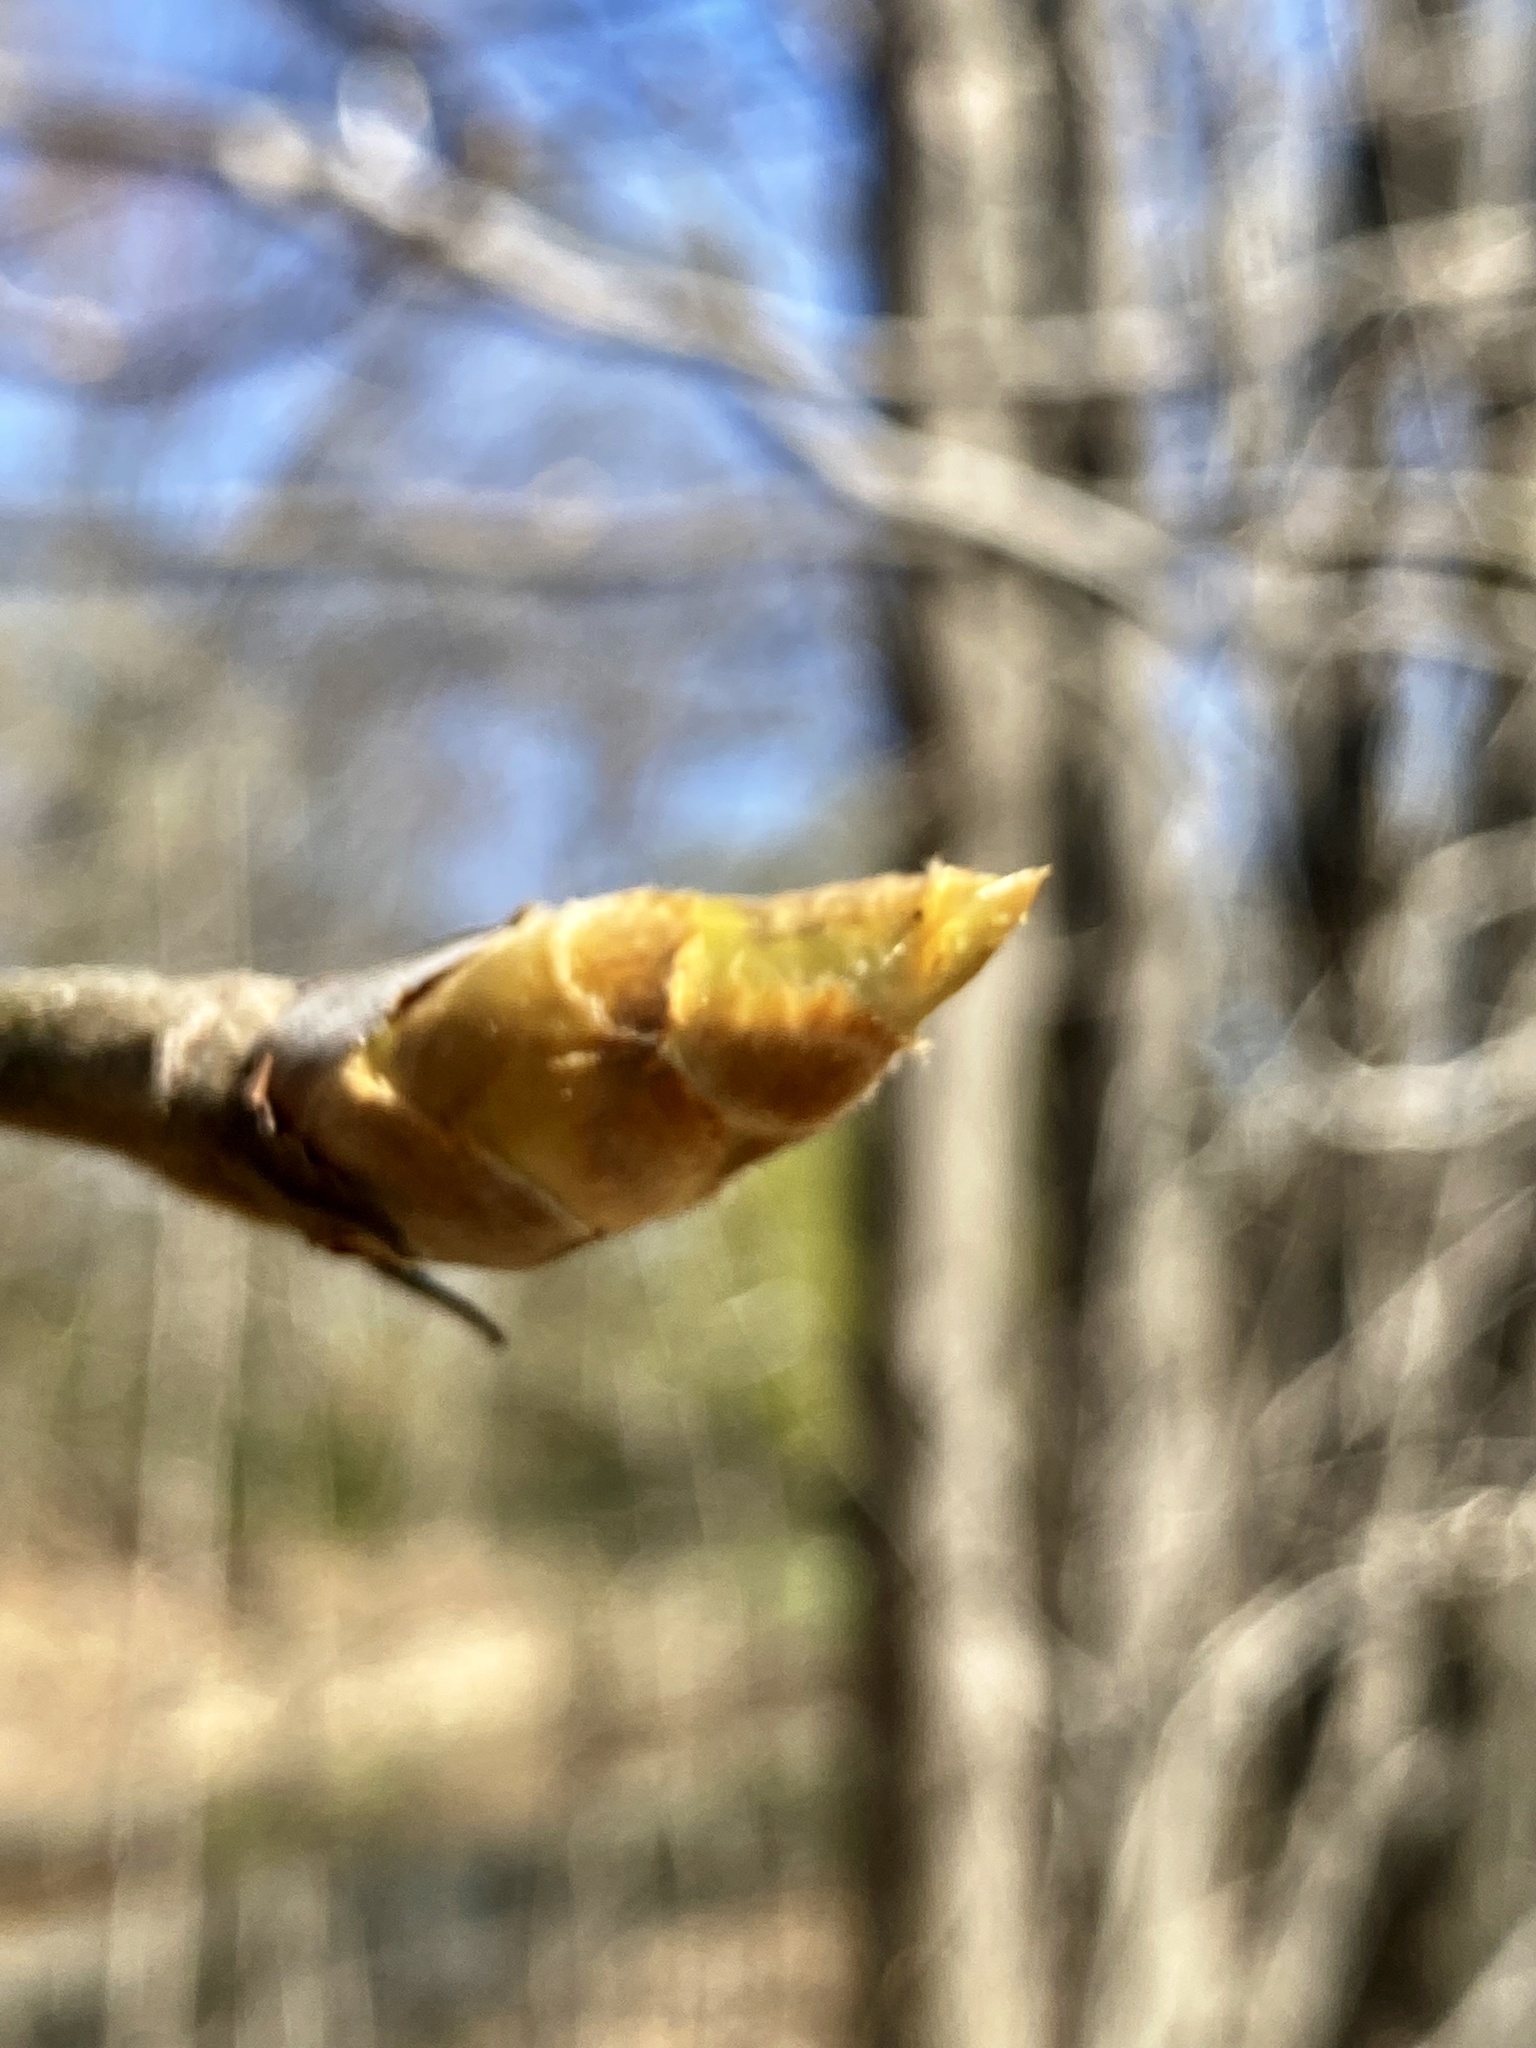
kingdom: Plantae
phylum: Tracheophyta
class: Magnoliopsida
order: Fagales
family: Juglandaceae
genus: Carya
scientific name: Carya ovata
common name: Shagbark hickory
